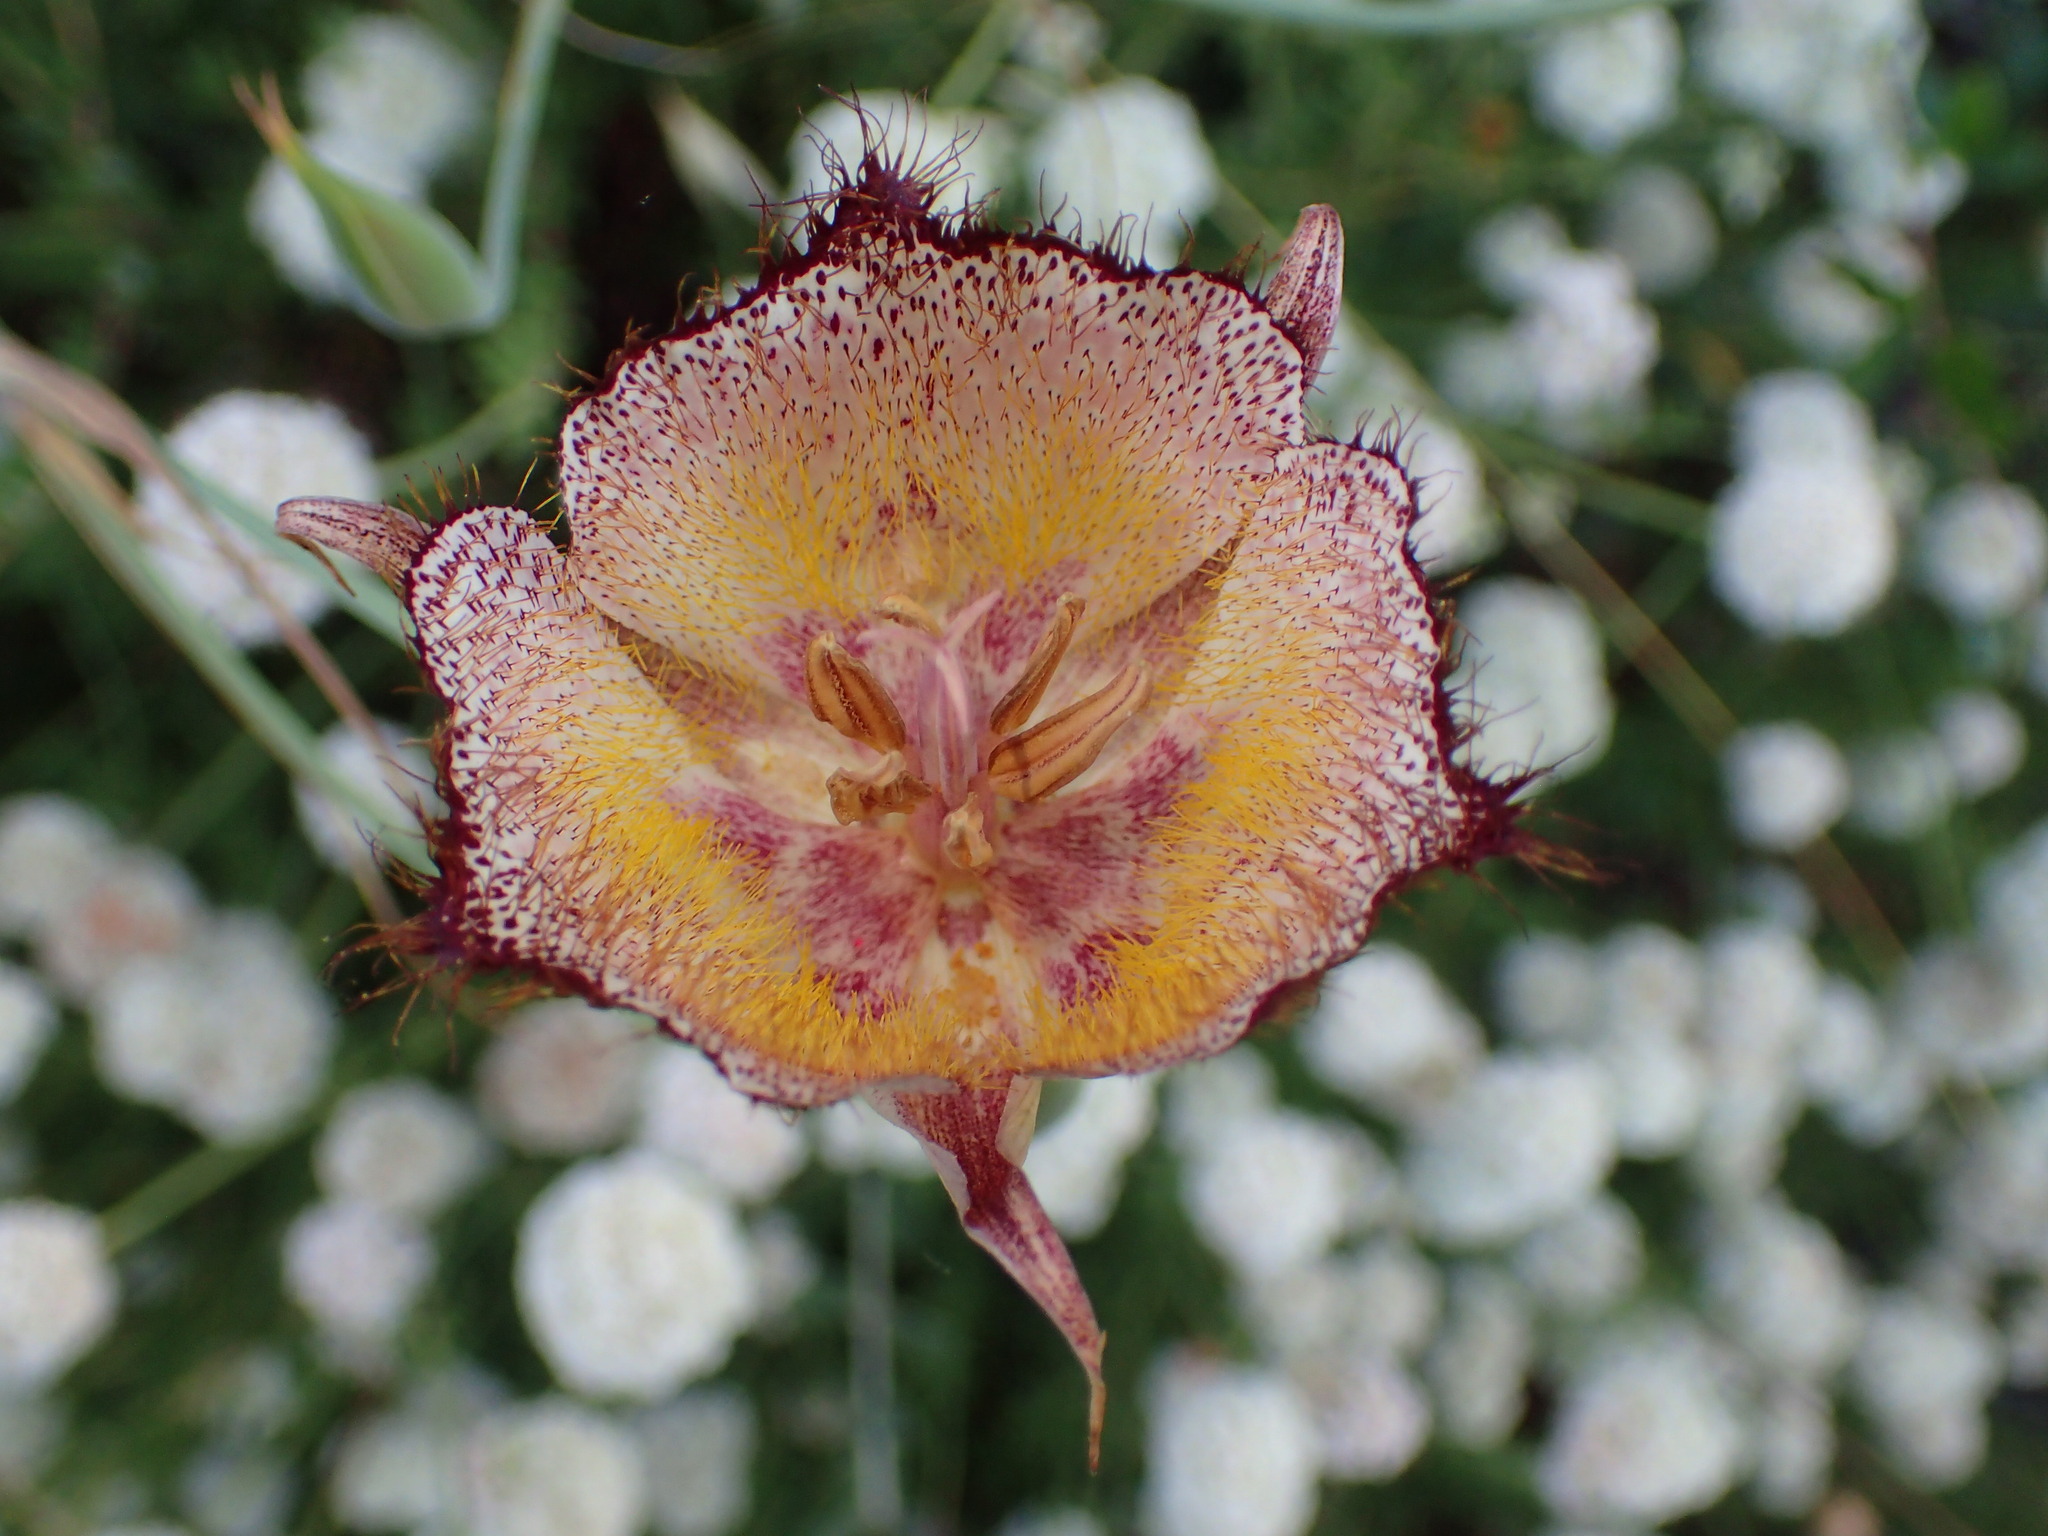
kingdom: Plantae
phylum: Tracheophyta
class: Liliopsida
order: Liliales
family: Liliaceae
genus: Calochortus
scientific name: Calochortus fimbriatus
